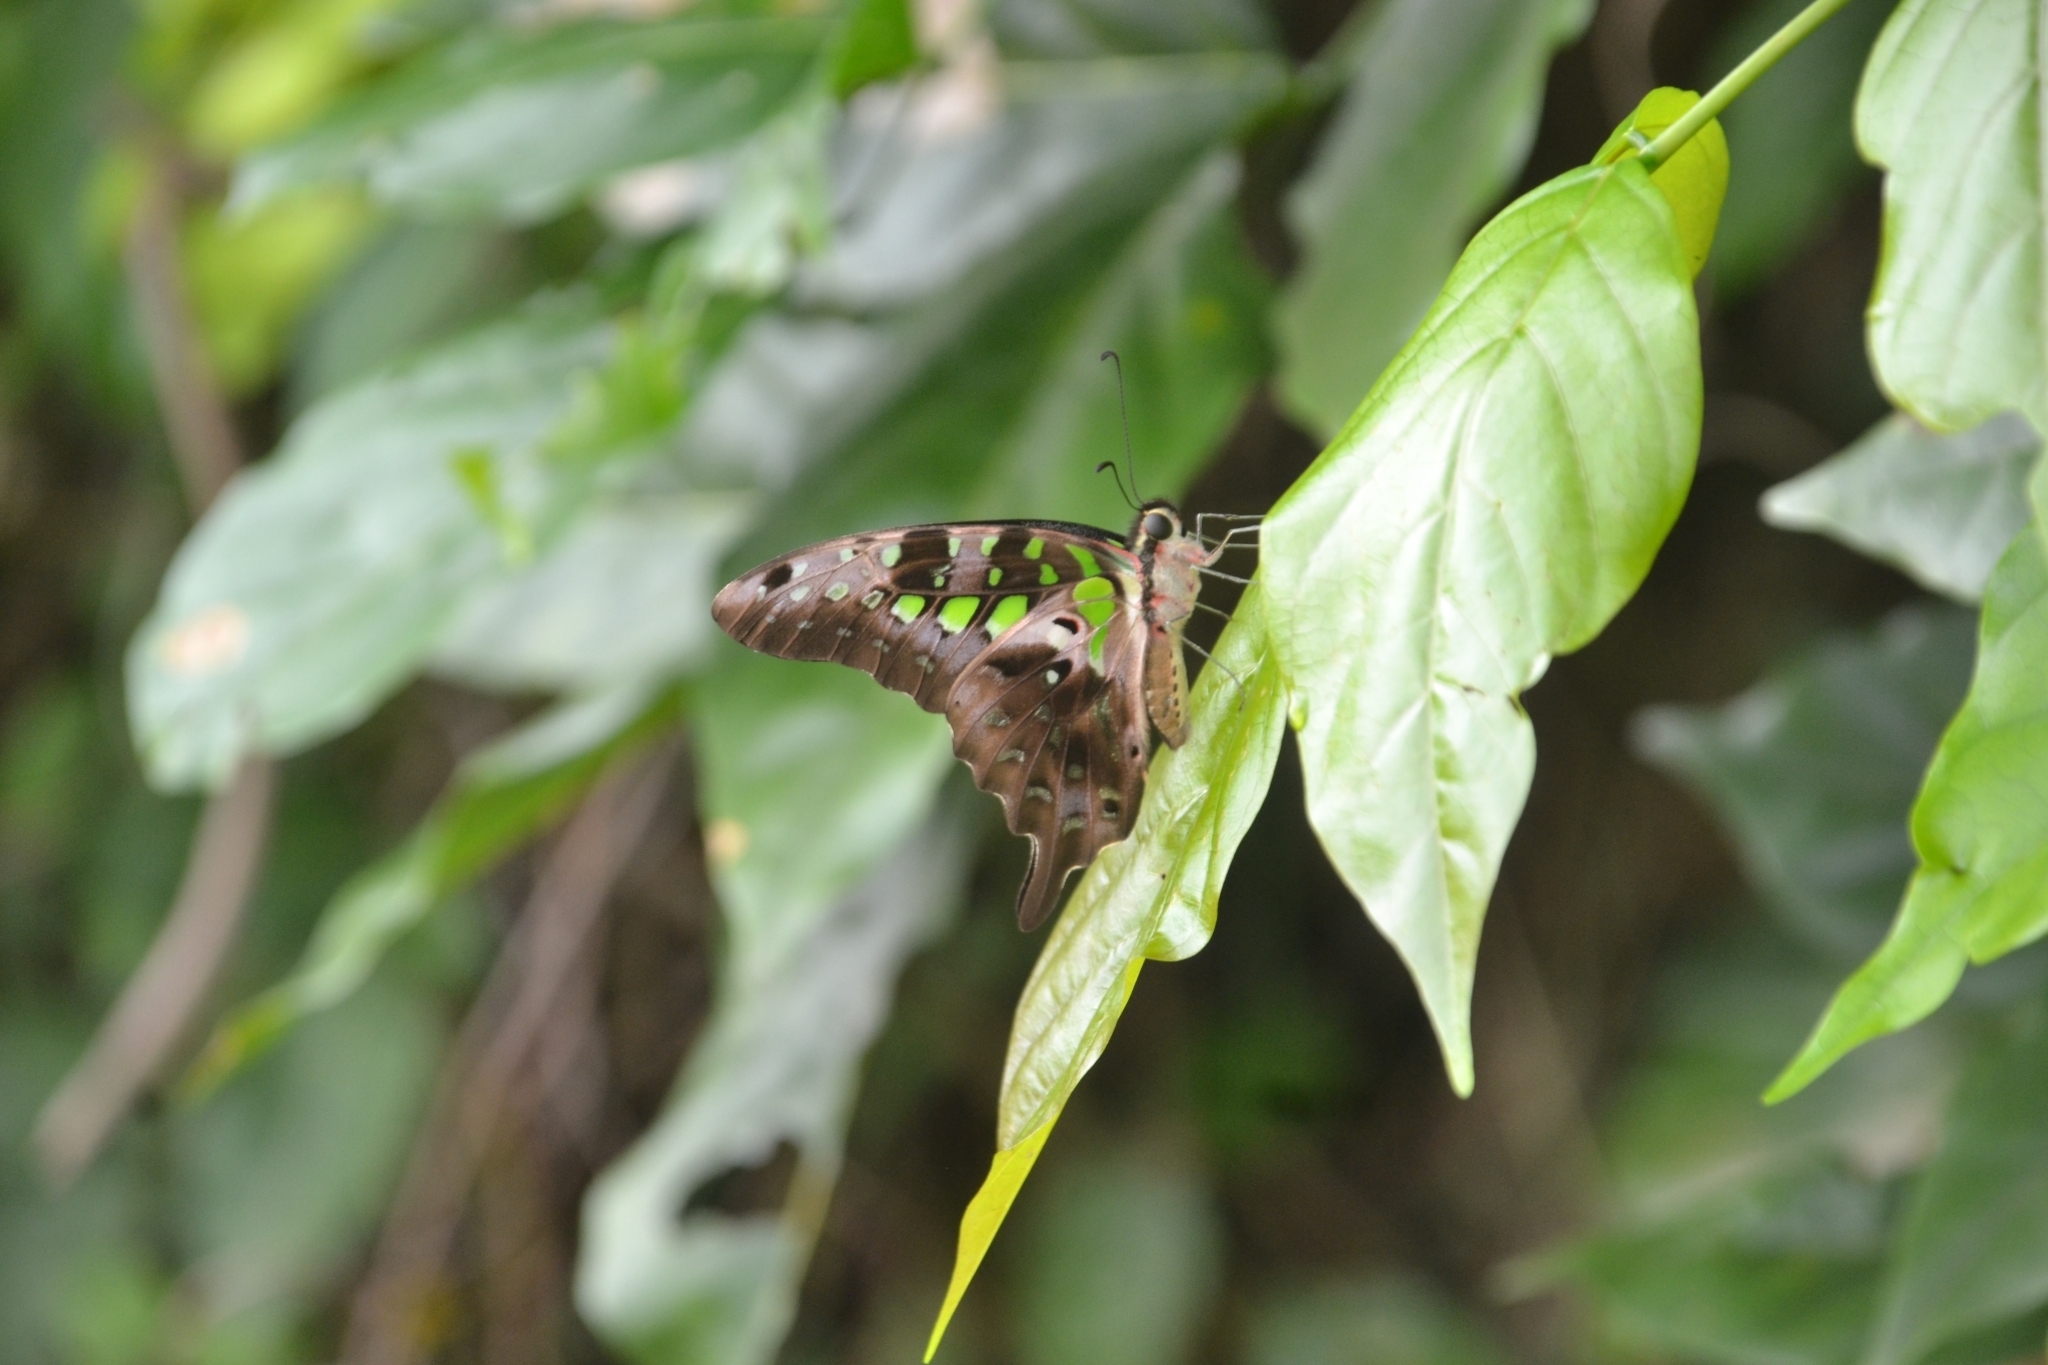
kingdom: Animalia
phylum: Arthropoda
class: Insecta
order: Lepidoptera
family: Papilionidae
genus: Graphium
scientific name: Graphium agamemnon
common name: Tailed jay
